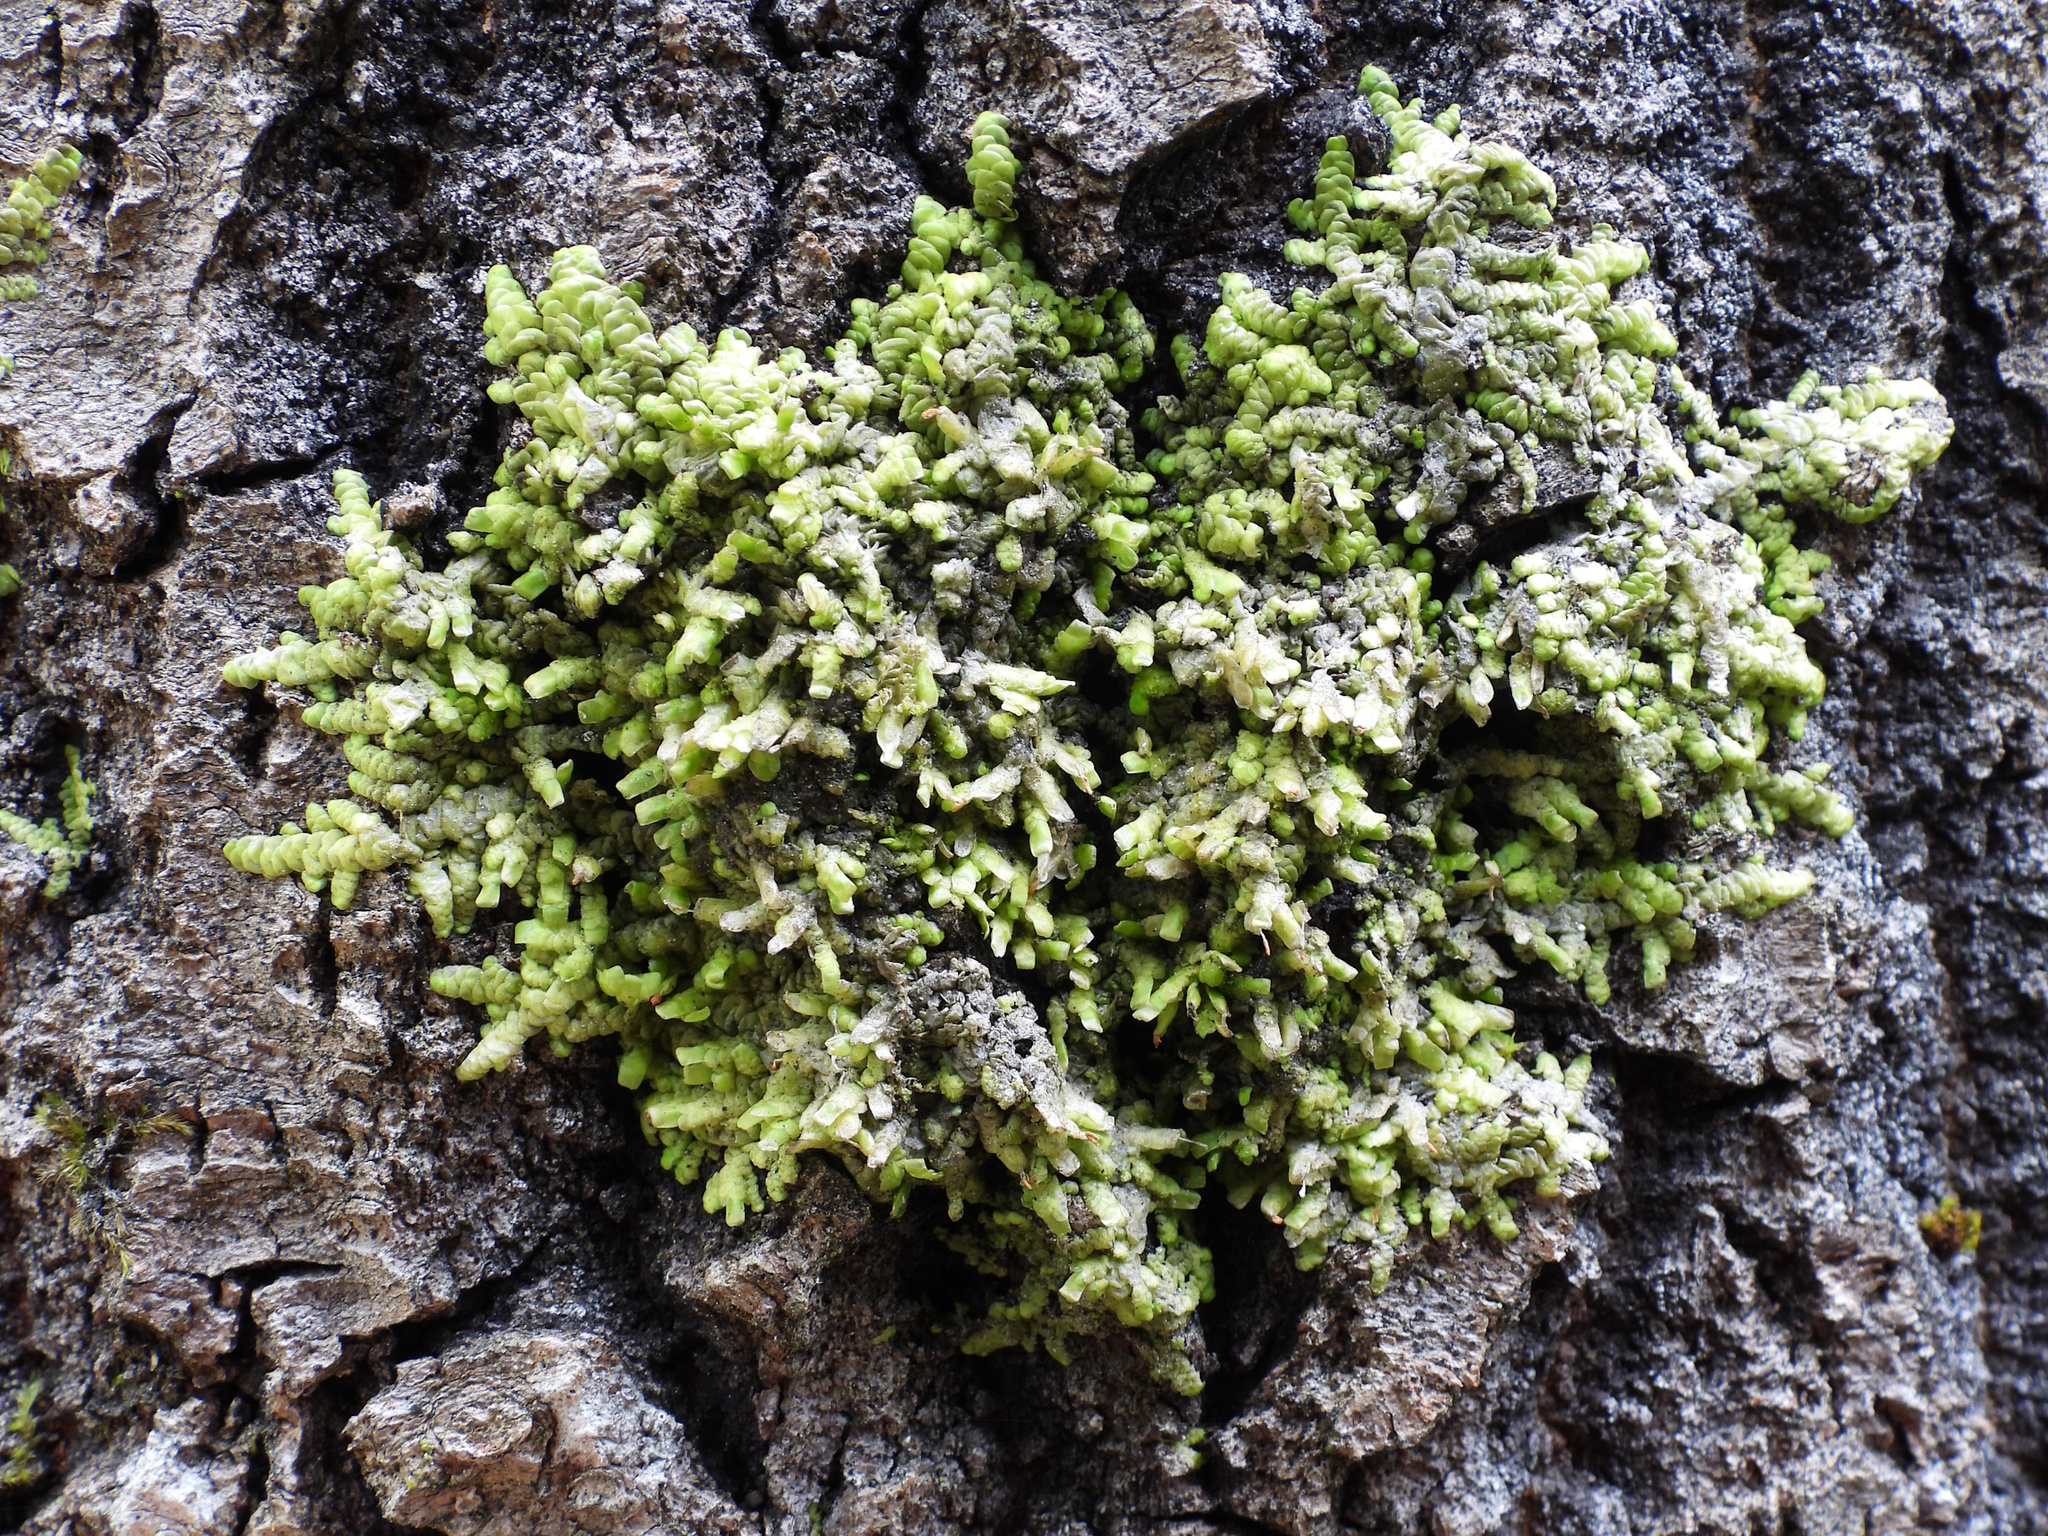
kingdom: Plantae
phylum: Marchantiophyta
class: Jungermanniopsida
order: Porellales
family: Radulaceae
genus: Radula
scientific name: Radula complanata
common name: Flat-leaved scalewort
